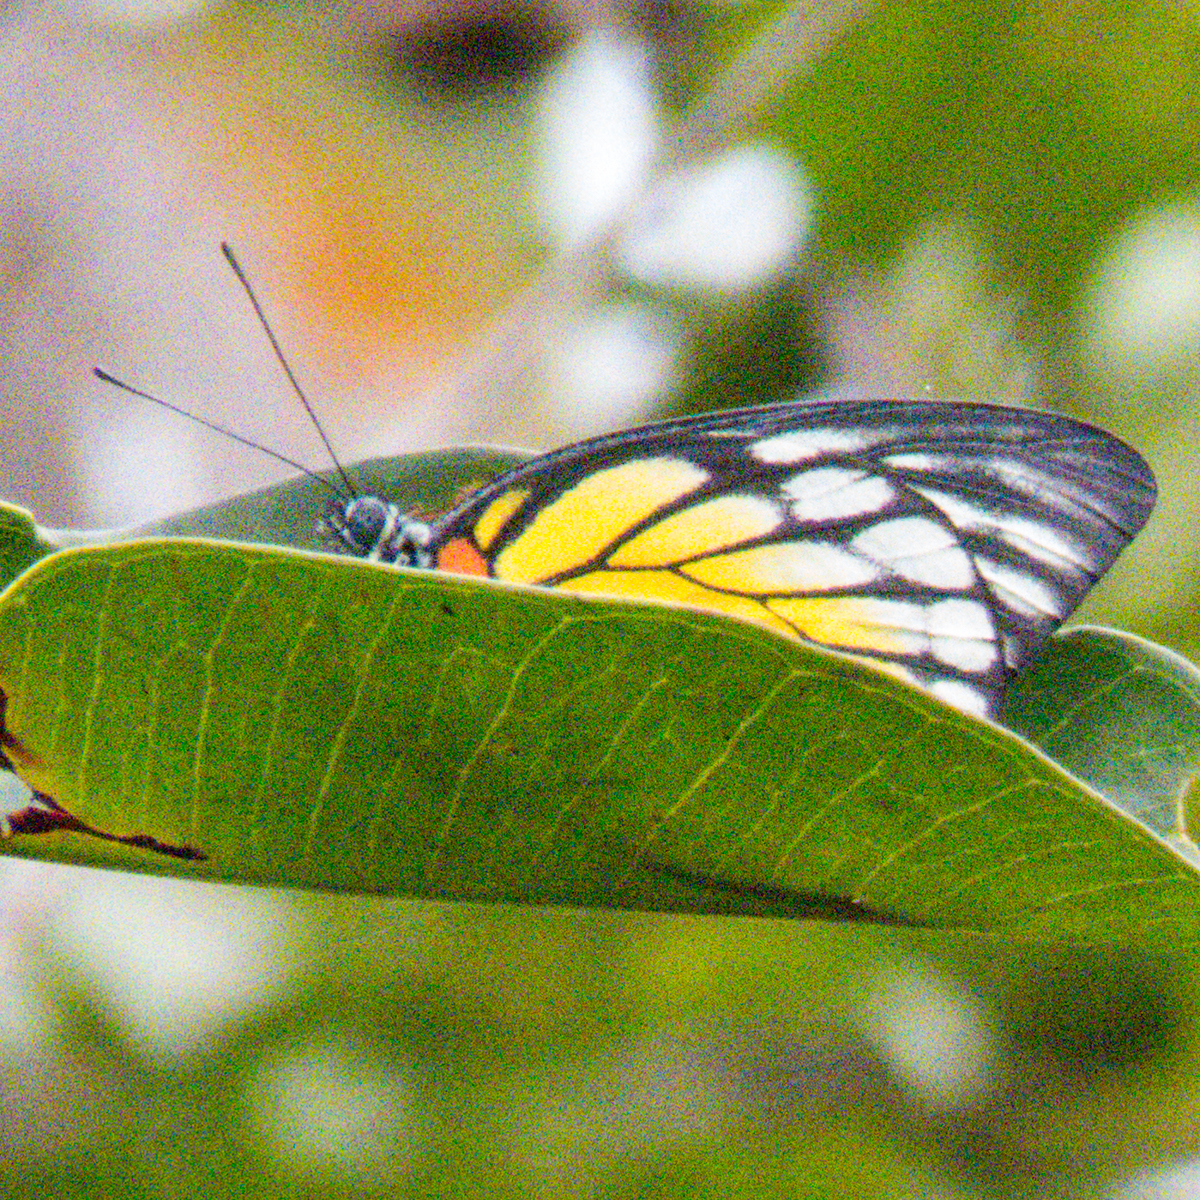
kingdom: Animalia
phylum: Arthropoda
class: Insecta
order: Lepidoptera
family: Pieridae
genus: Prioneris
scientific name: Prioneris
